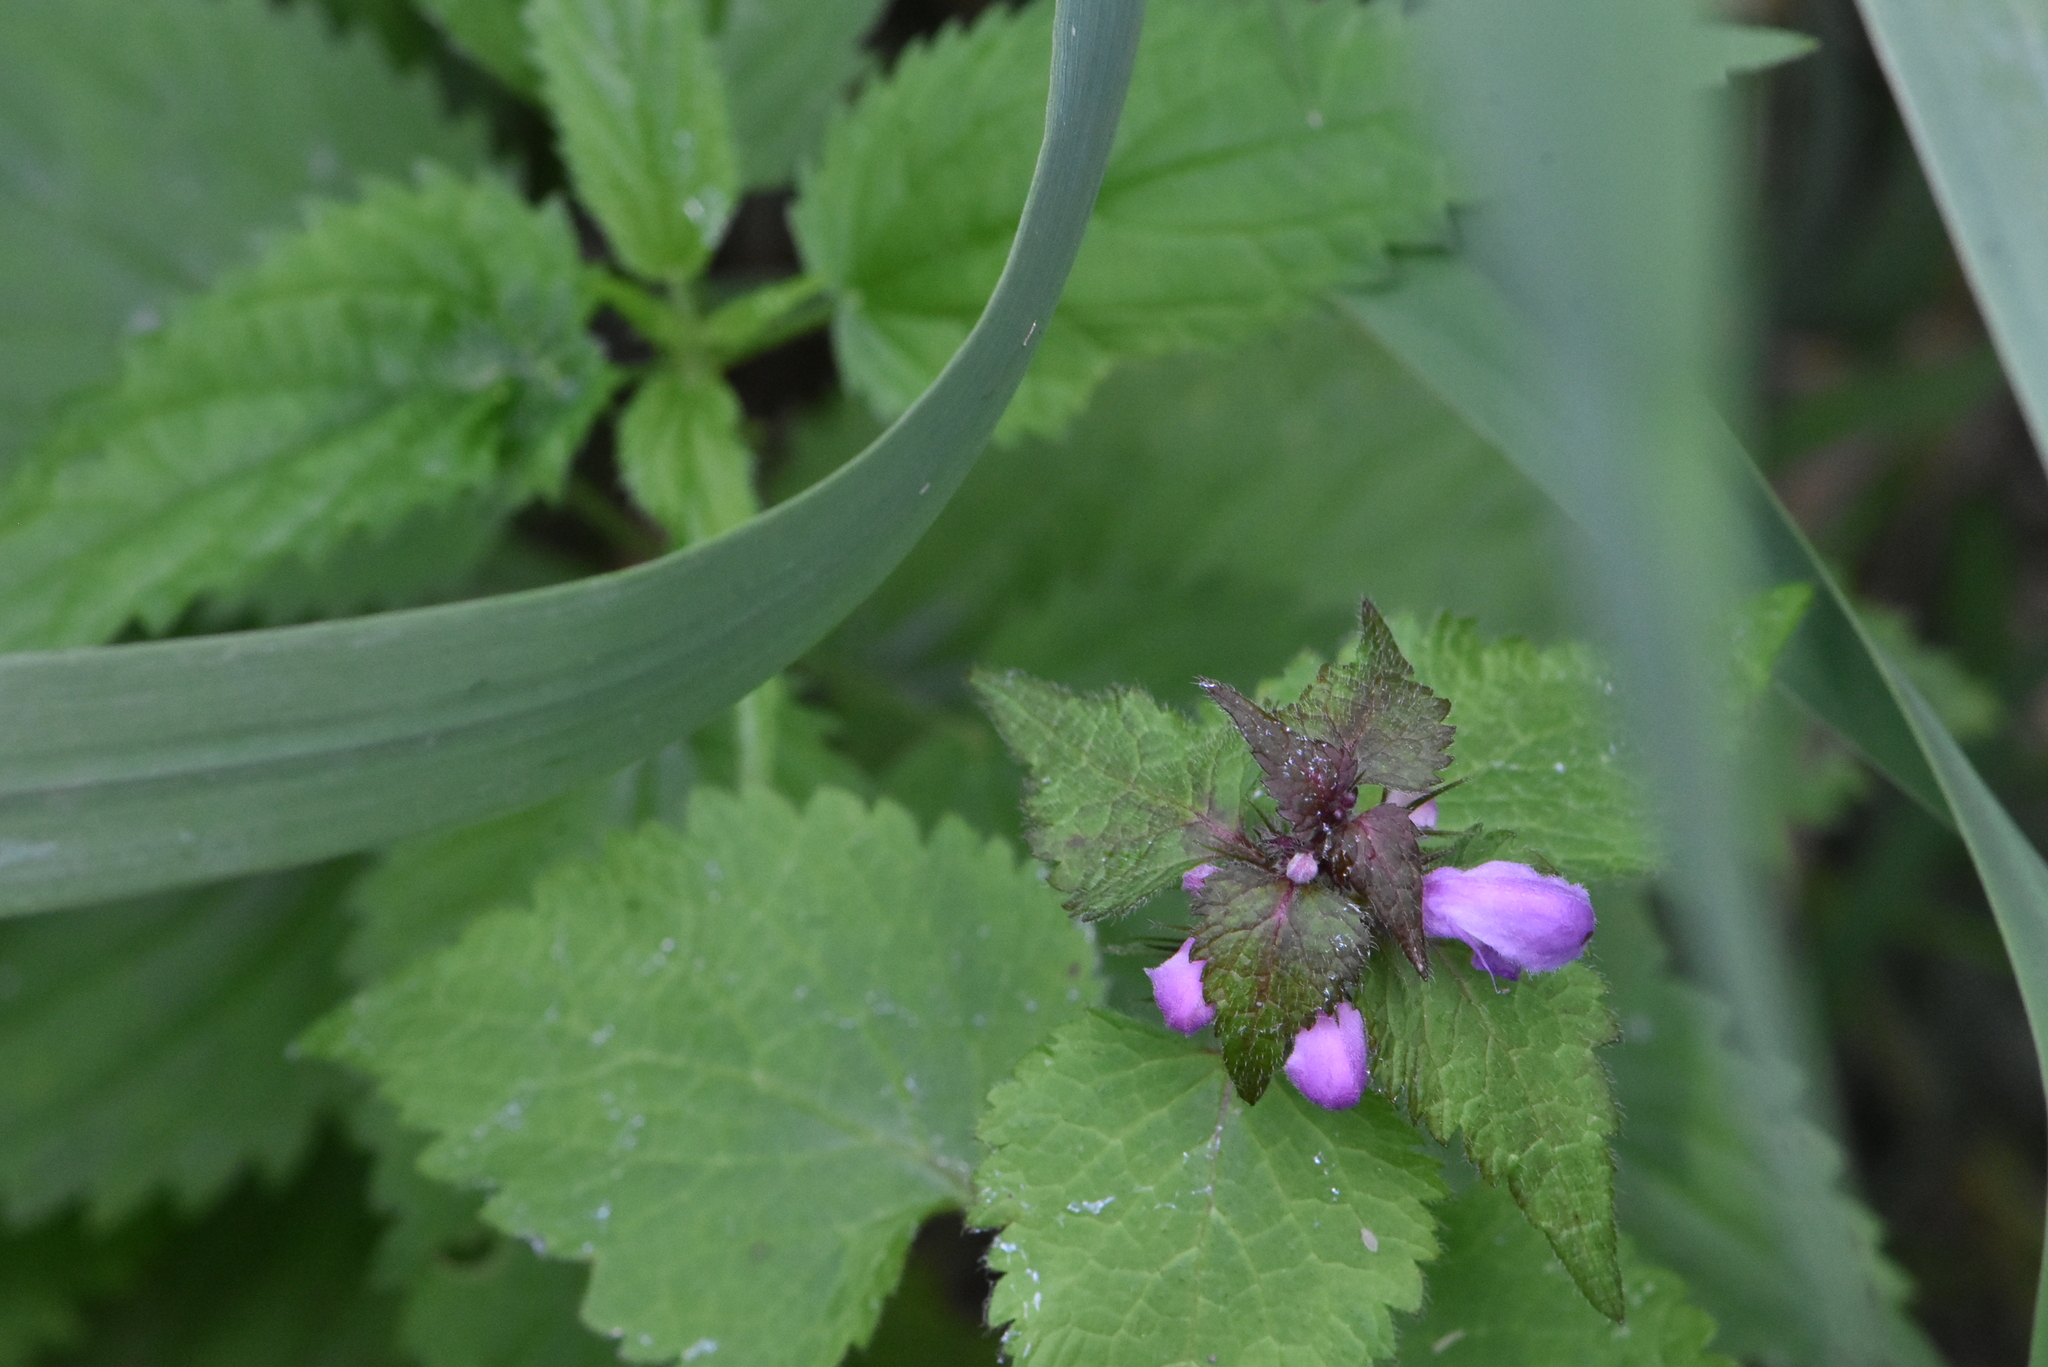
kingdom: Plantae
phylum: Tracheophyta
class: Magnoliopsida
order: Lamiales
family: Lamiaceae
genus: Lamium
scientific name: Lamium maculatum
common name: Spotted dead-nettle
